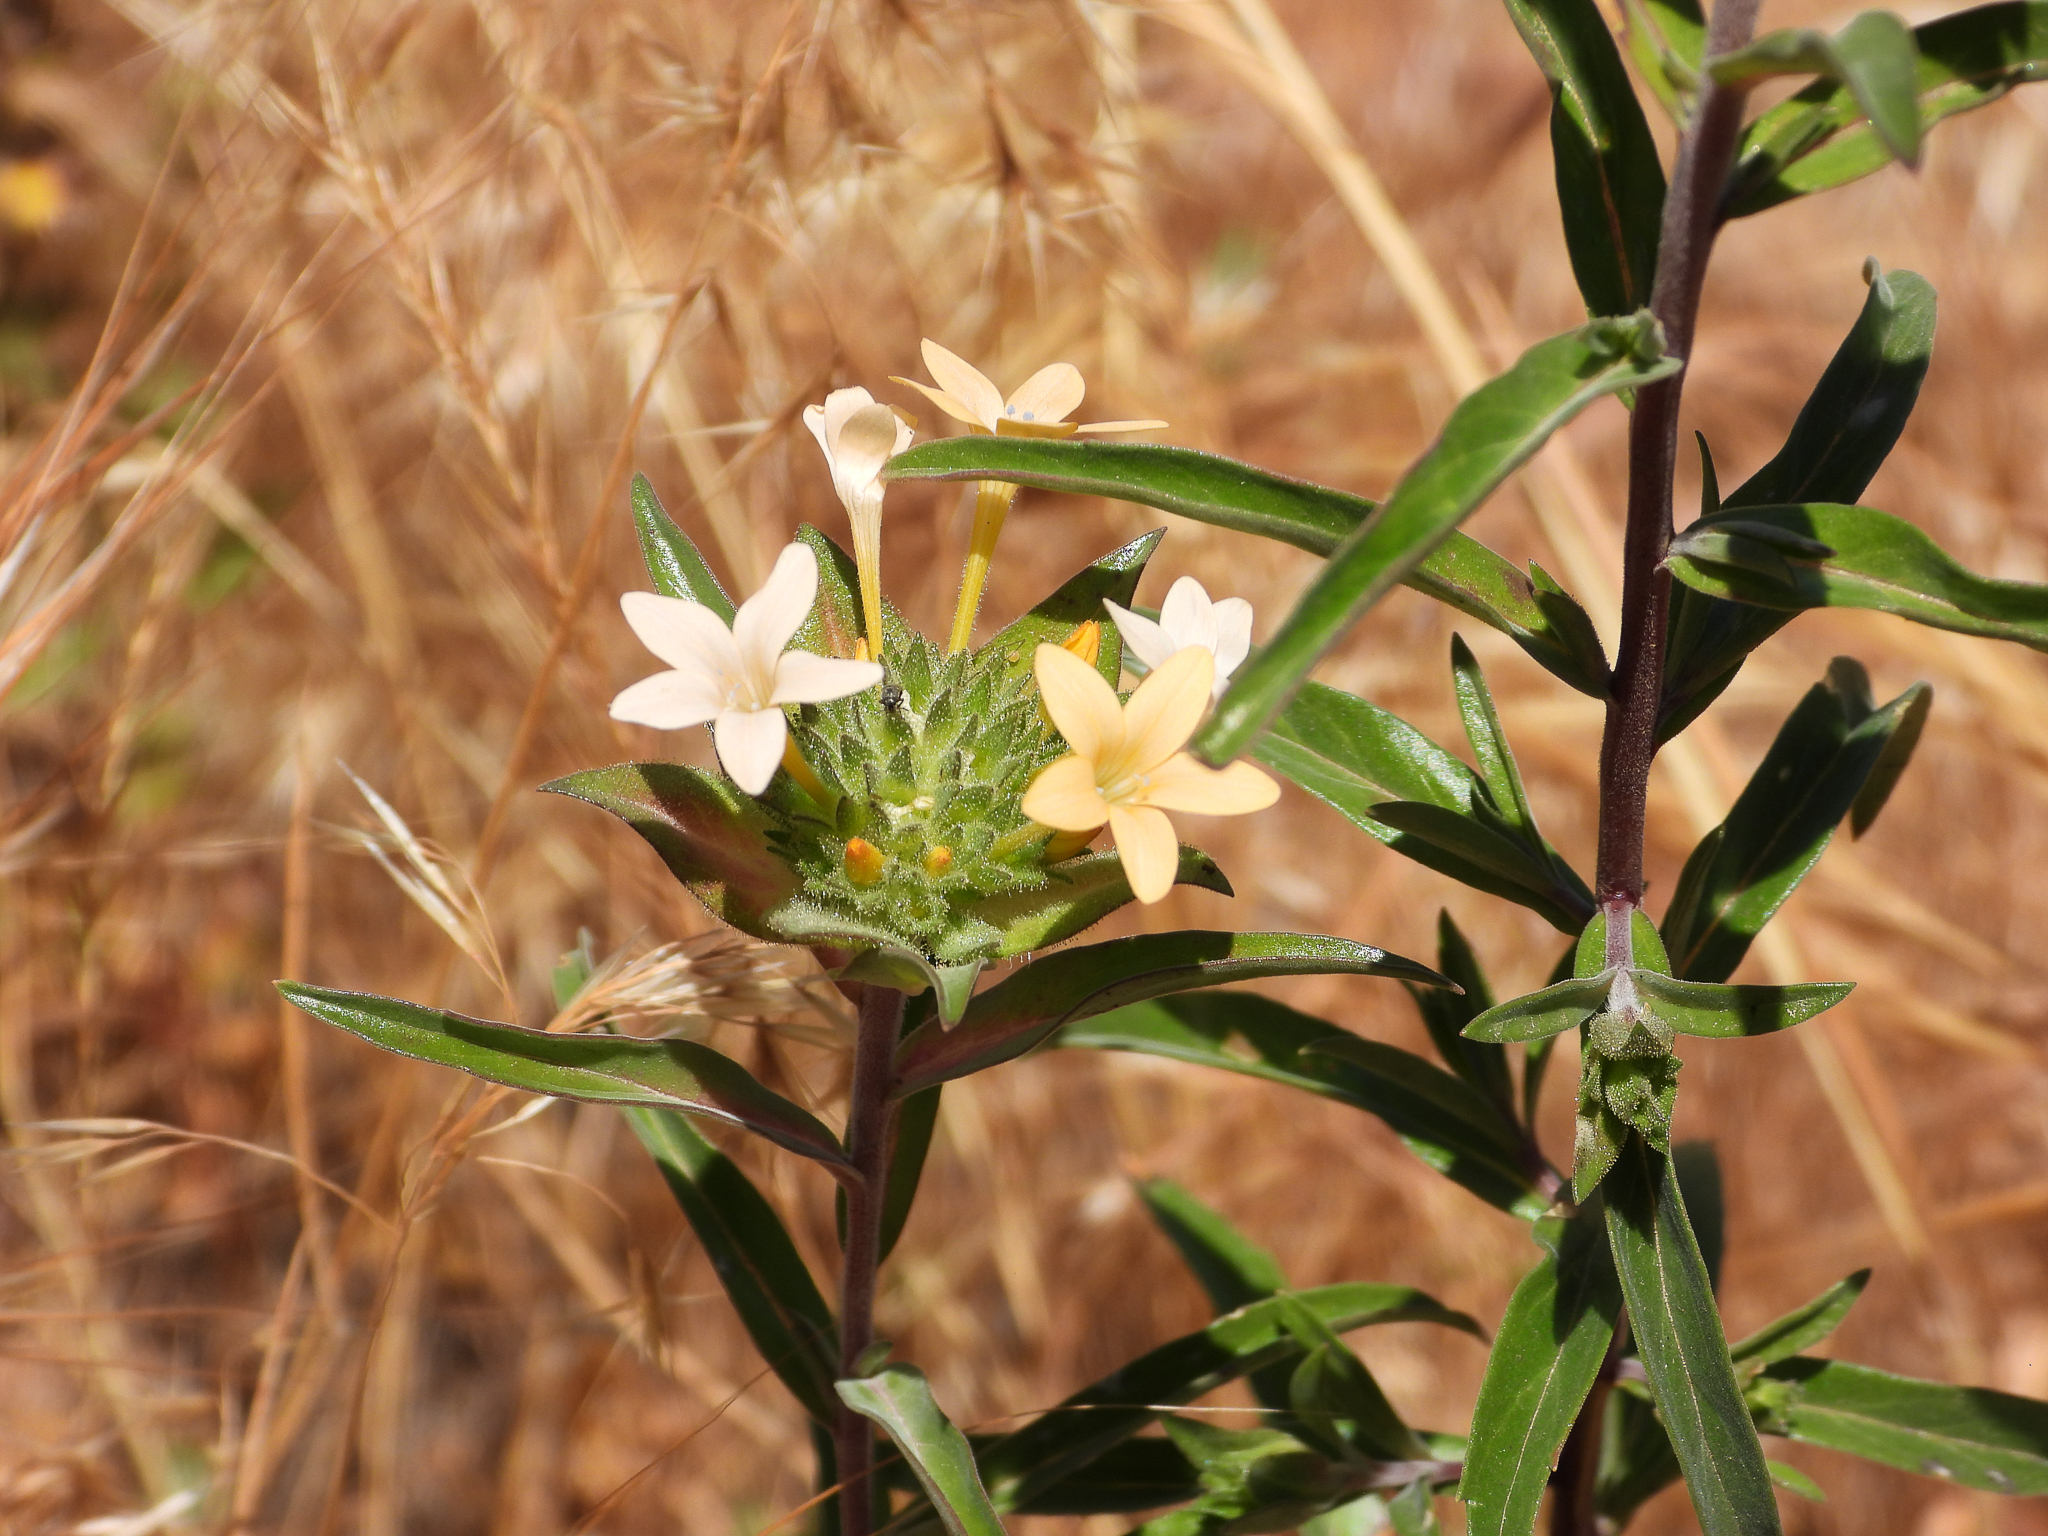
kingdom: Plantae
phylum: Tracheophyta
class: Magnoliopsida
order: Ericales
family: Polemoniaceae
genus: Collomia
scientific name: Collomia grandiflora
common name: California strawflower
